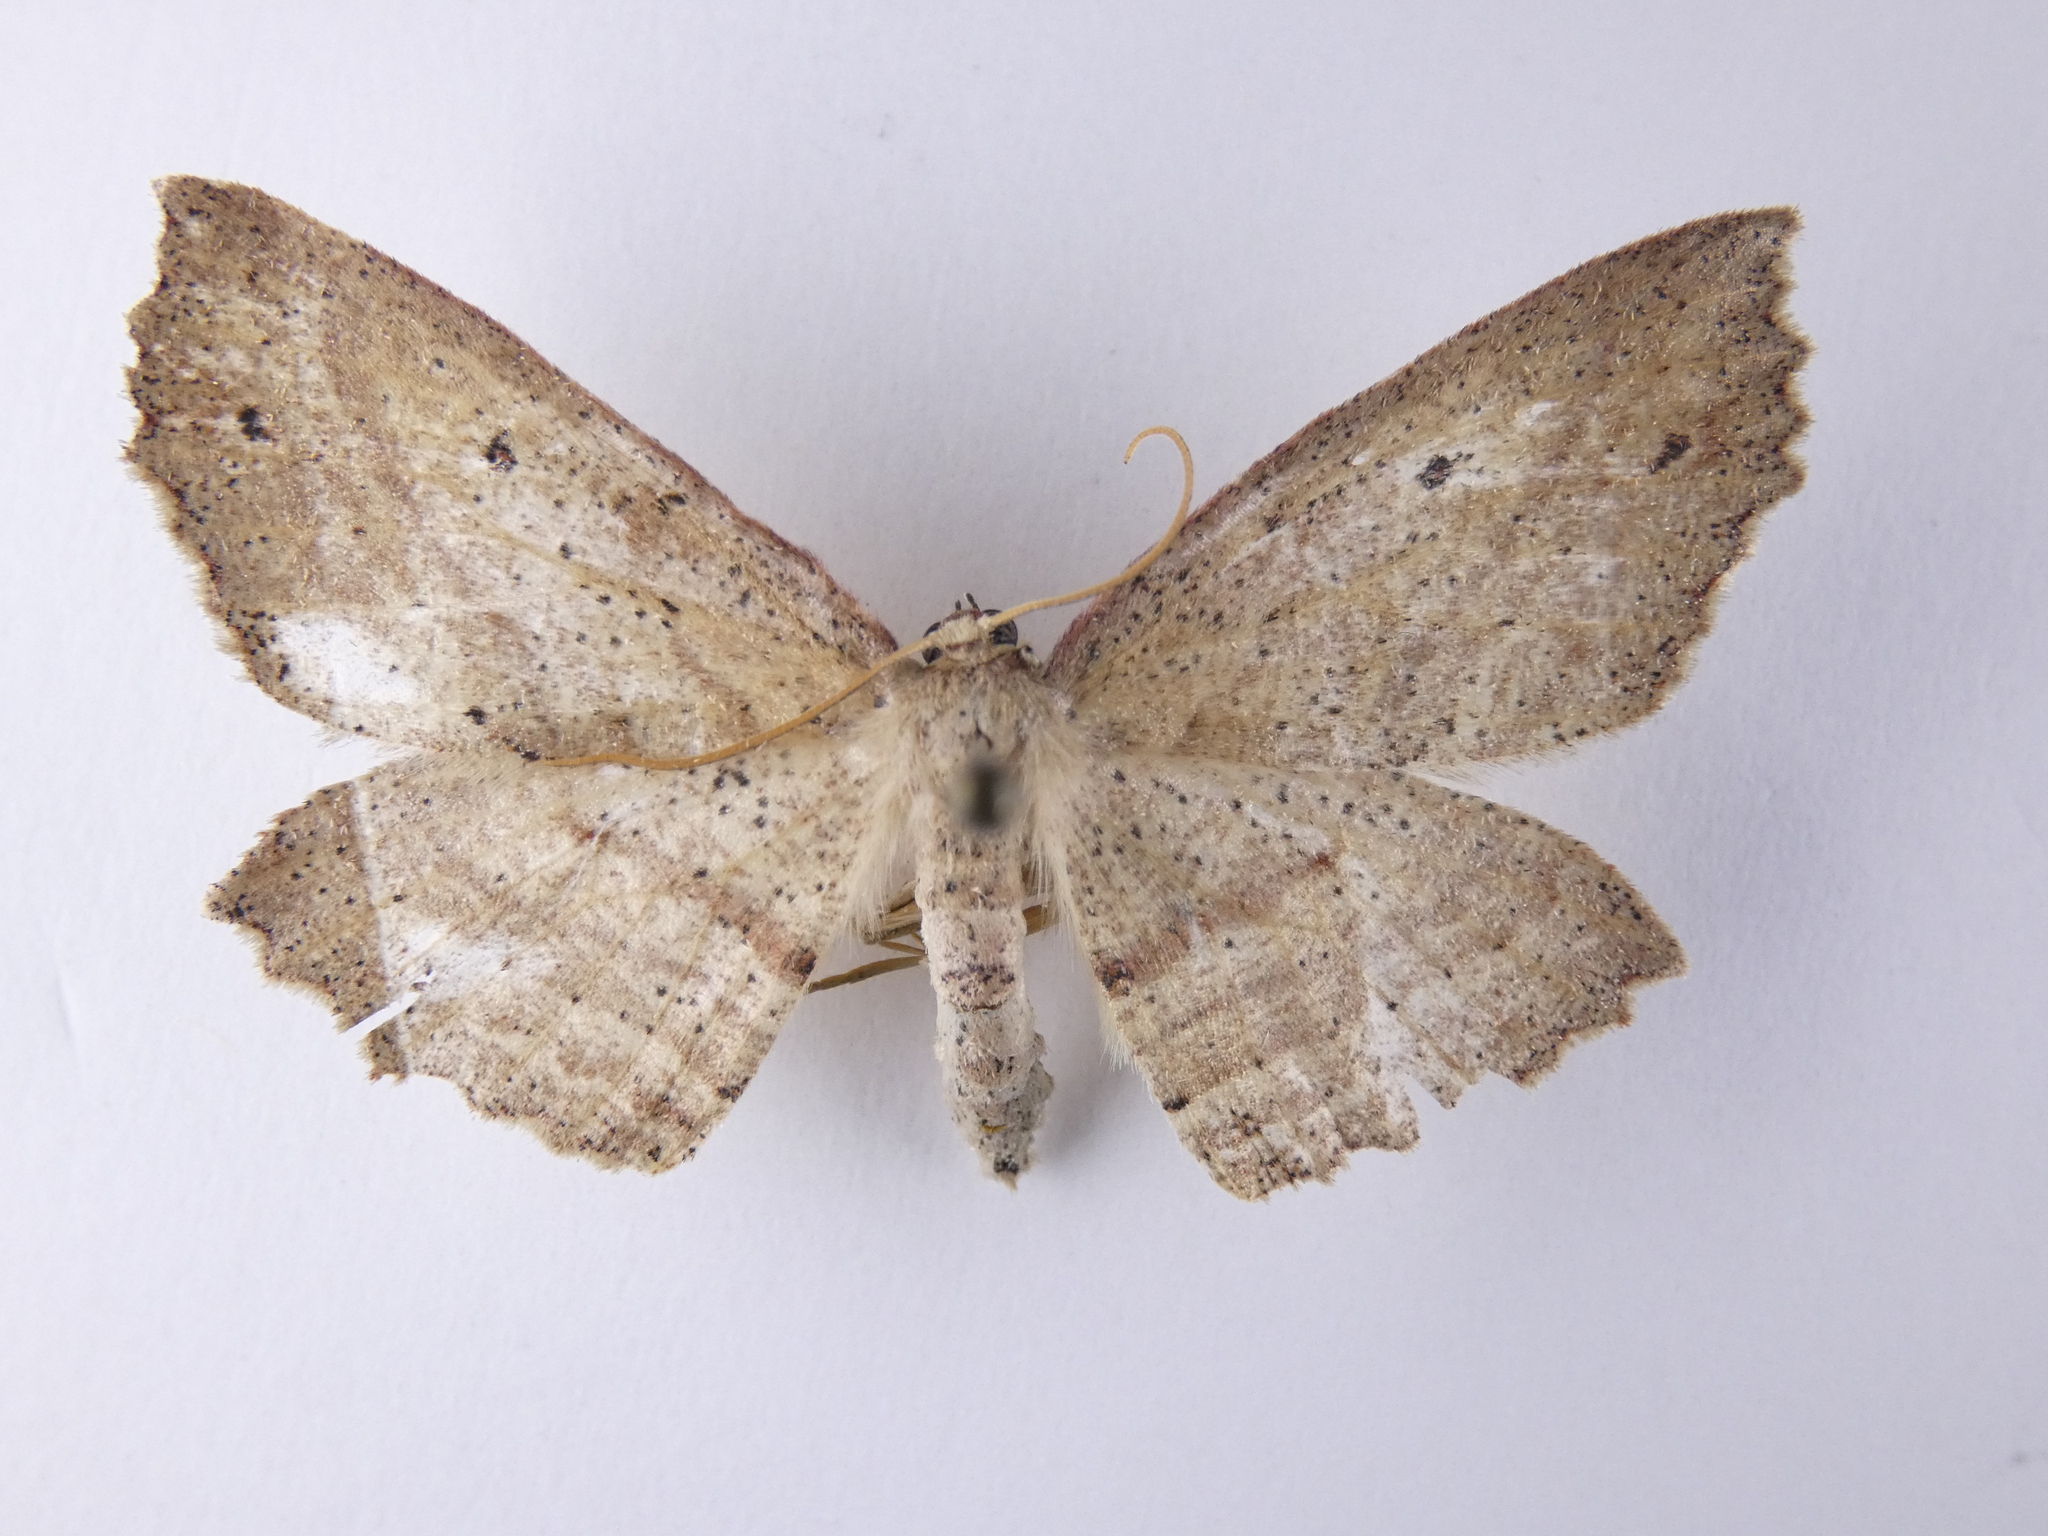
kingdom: Animalia
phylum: Arthropoda
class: Insecta
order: Lepidoptera
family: Geometridae
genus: Xyridacma
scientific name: Xyridacma veronicae
